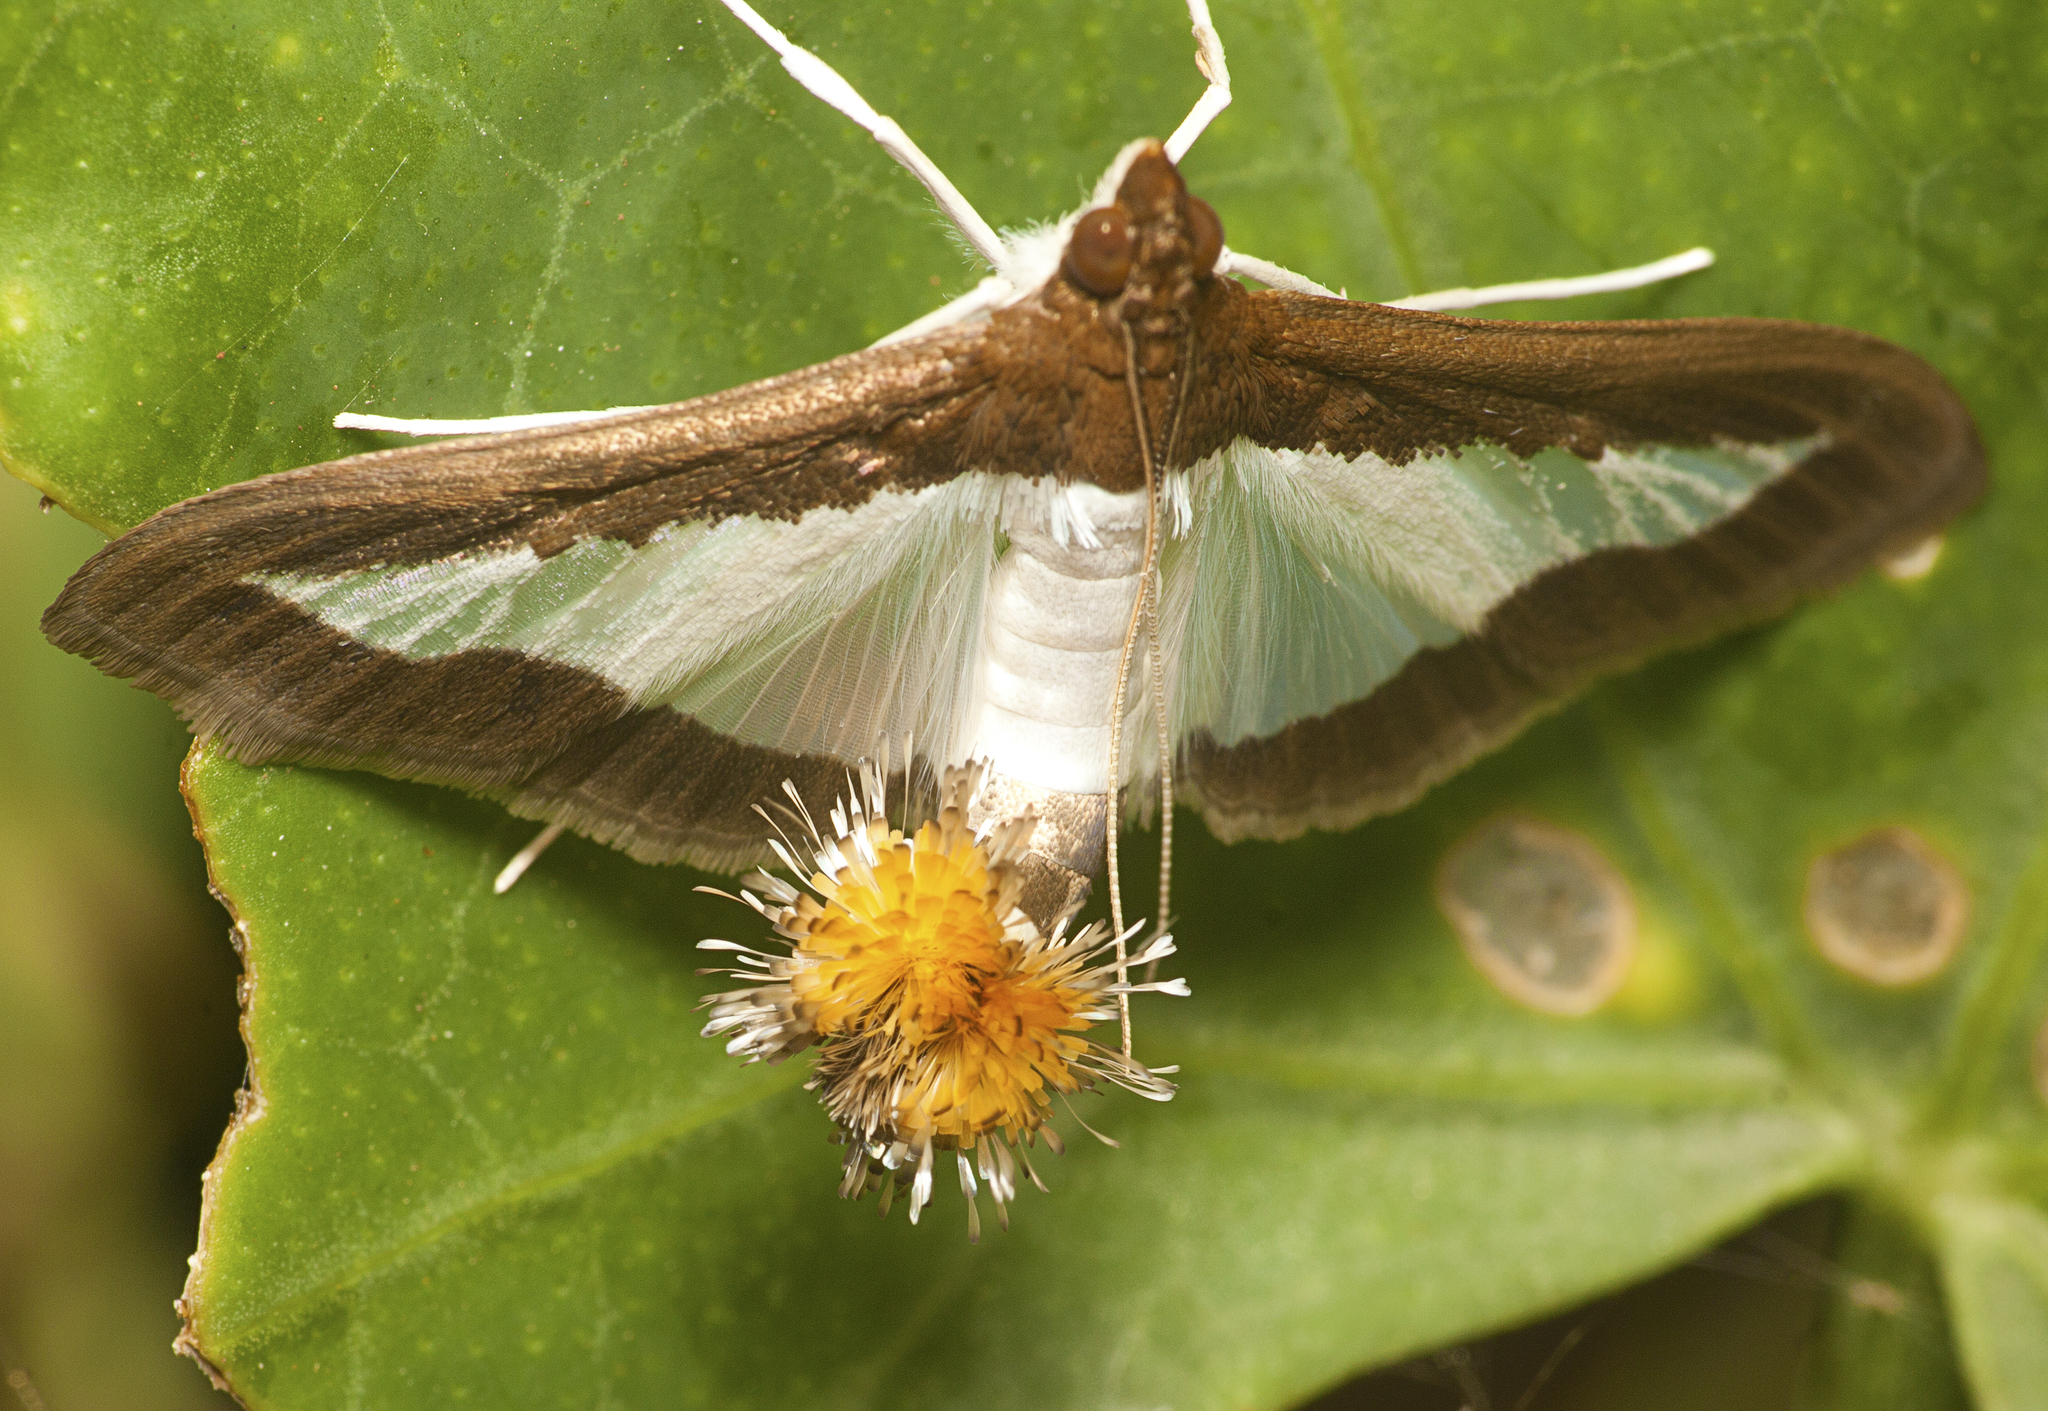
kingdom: Animalia
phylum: Arthropoda
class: Insecta
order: Lepidoptera
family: Crambidae
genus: Diaphania
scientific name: Diaphania indica
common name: Cucumber moth
